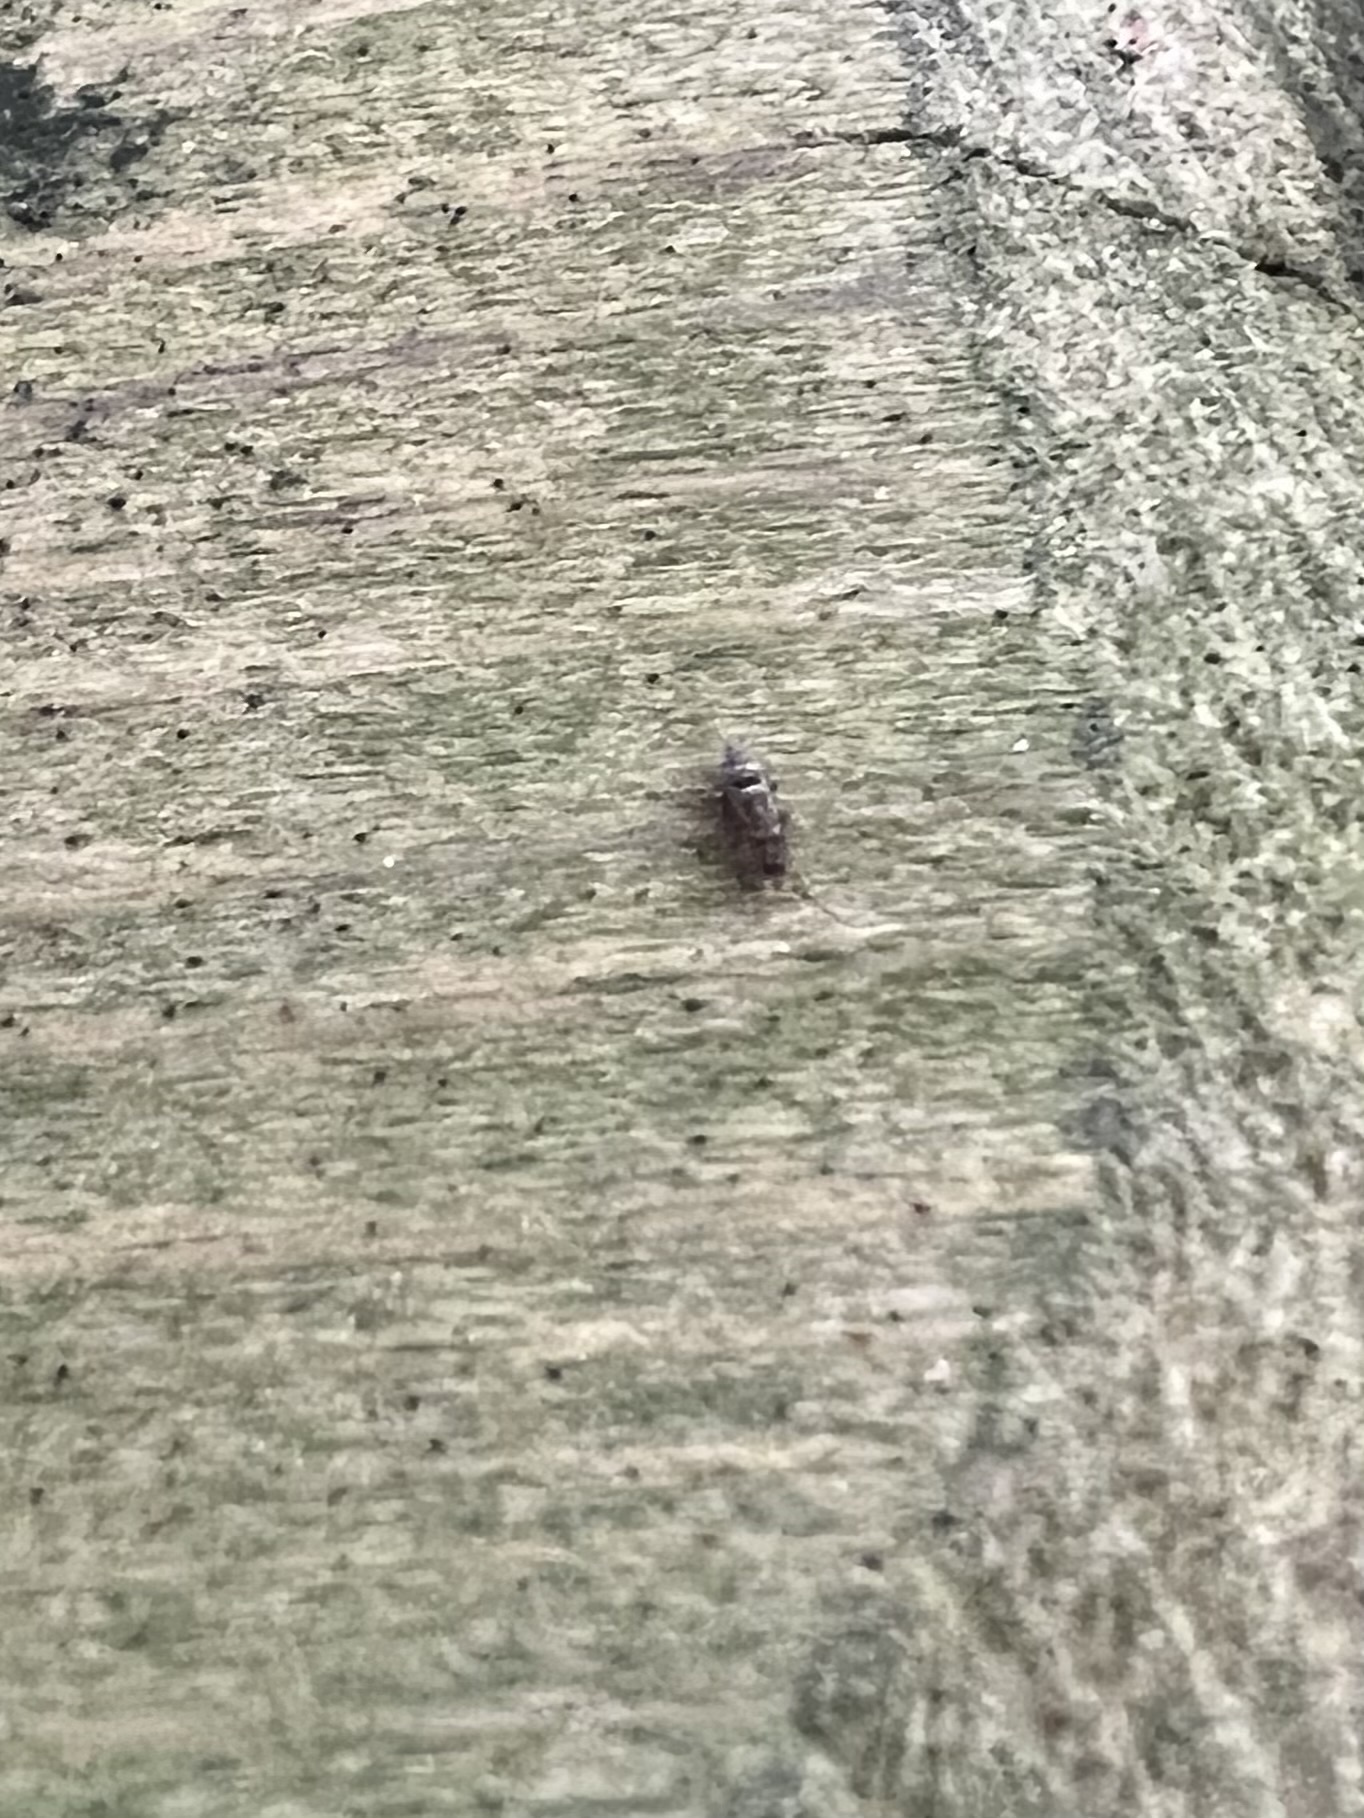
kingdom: Animalia
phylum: Arthropoda
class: Collembola
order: Entomobryomorpha
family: Orchesellidae
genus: Orchesella
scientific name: Orchesella cincta
